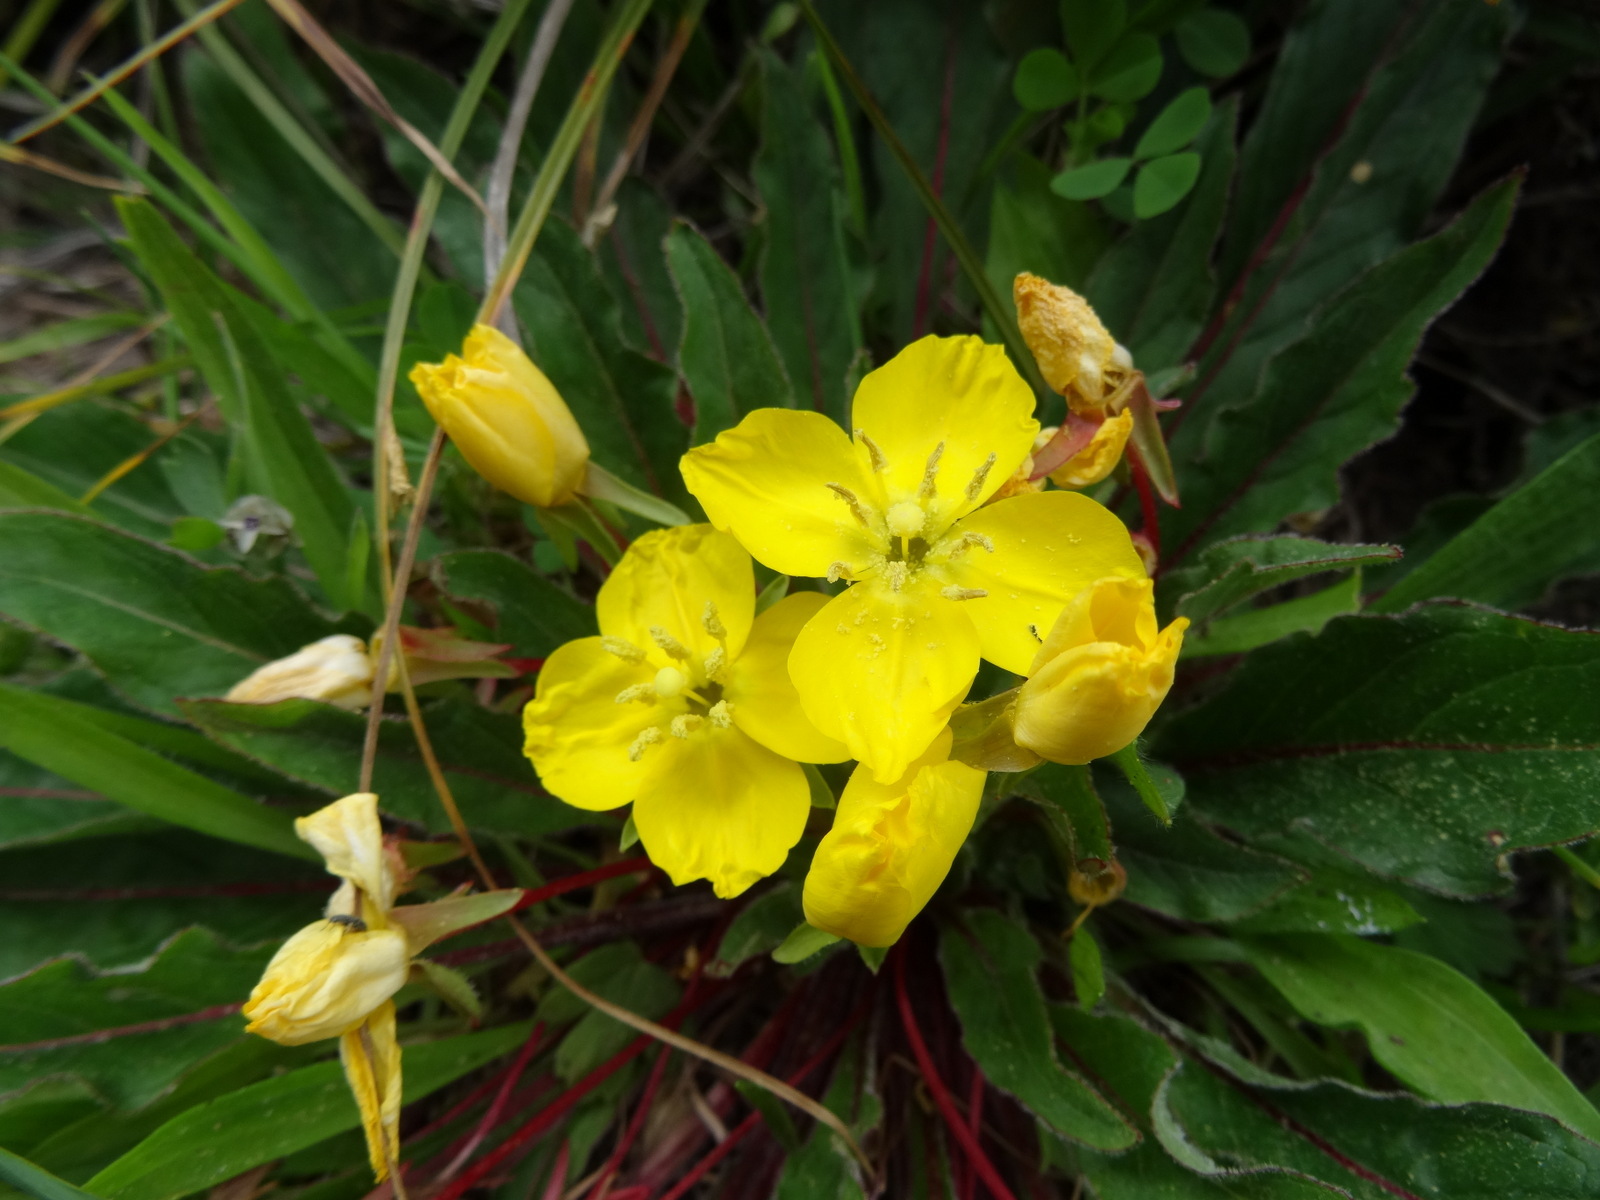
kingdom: Plantae
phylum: Tracheophyta
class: Magnoliopsida
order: Myrtales
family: Onagraceae
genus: Taraxia
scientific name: Taraxia ovata
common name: Goldeneggs
